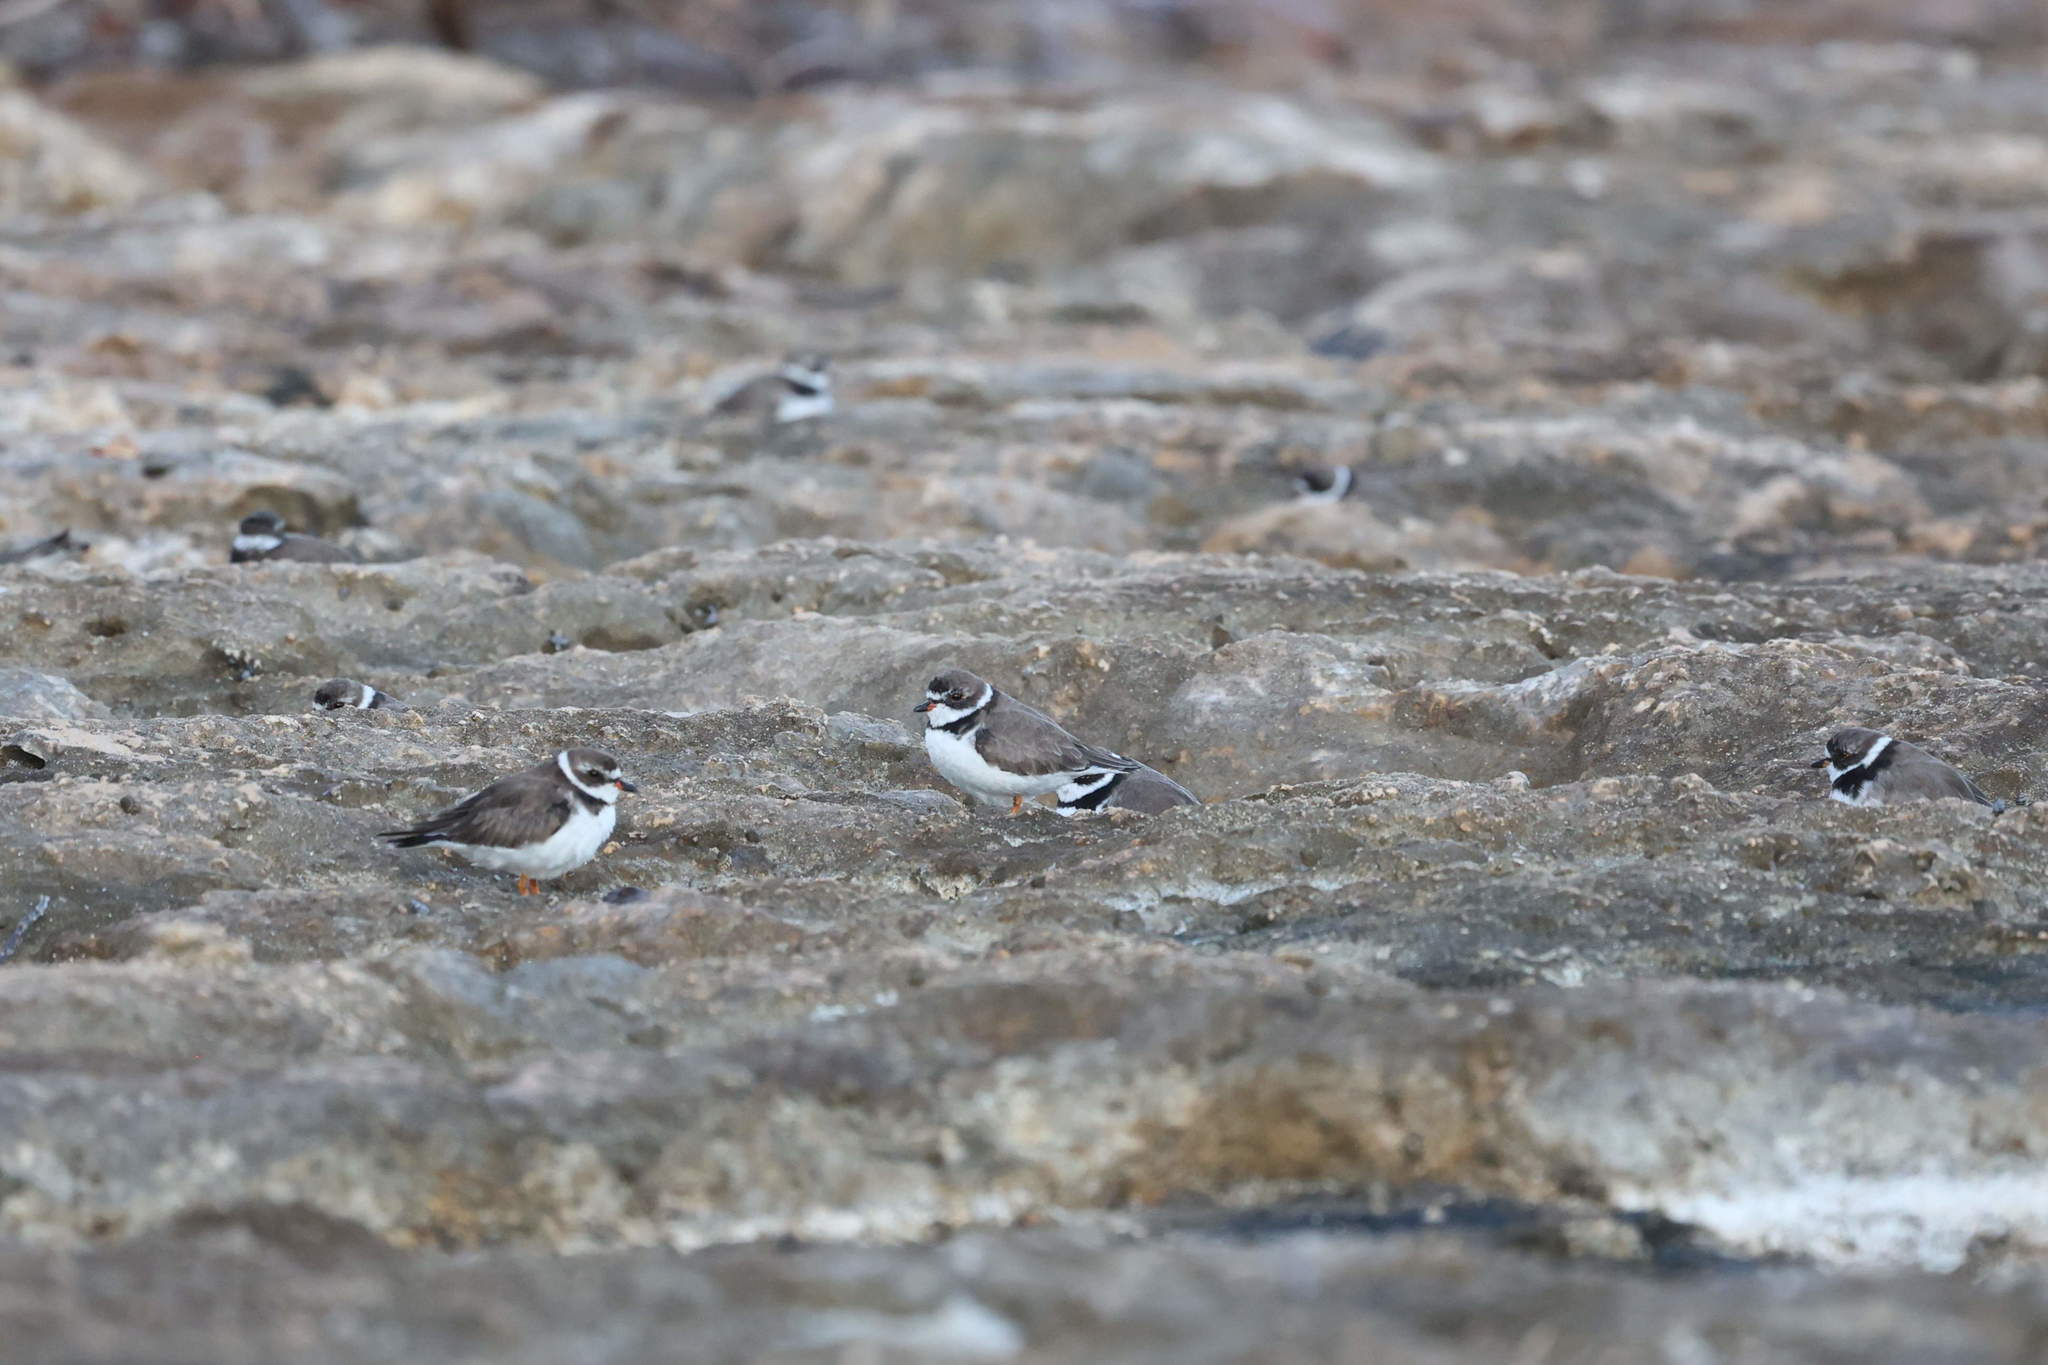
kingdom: Animalia
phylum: Chordata
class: Aves
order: Charadriiformes
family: Charadriidae
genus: Charadrius
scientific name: Charadrius semipalmatus
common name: Semipalmated plover
